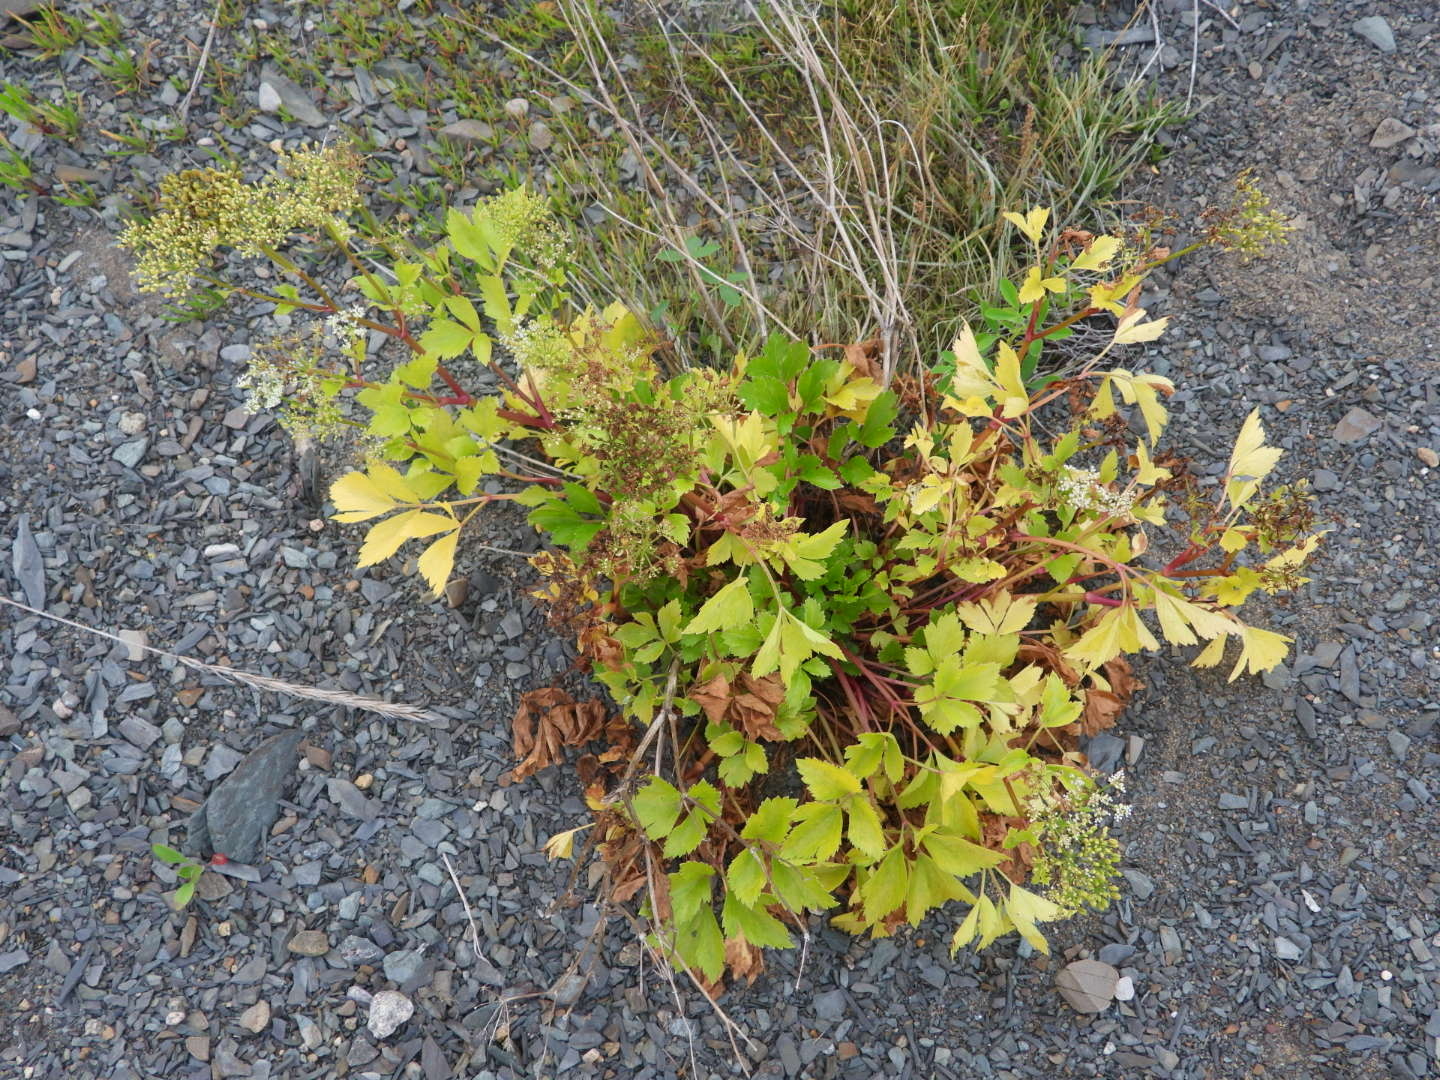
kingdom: Plantae
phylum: Tracheophyta
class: Magnoliopsida
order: Apiales
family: Apiaceae
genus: Ligusticum
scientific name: Ligusticum scothicum
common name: Beach lovage
